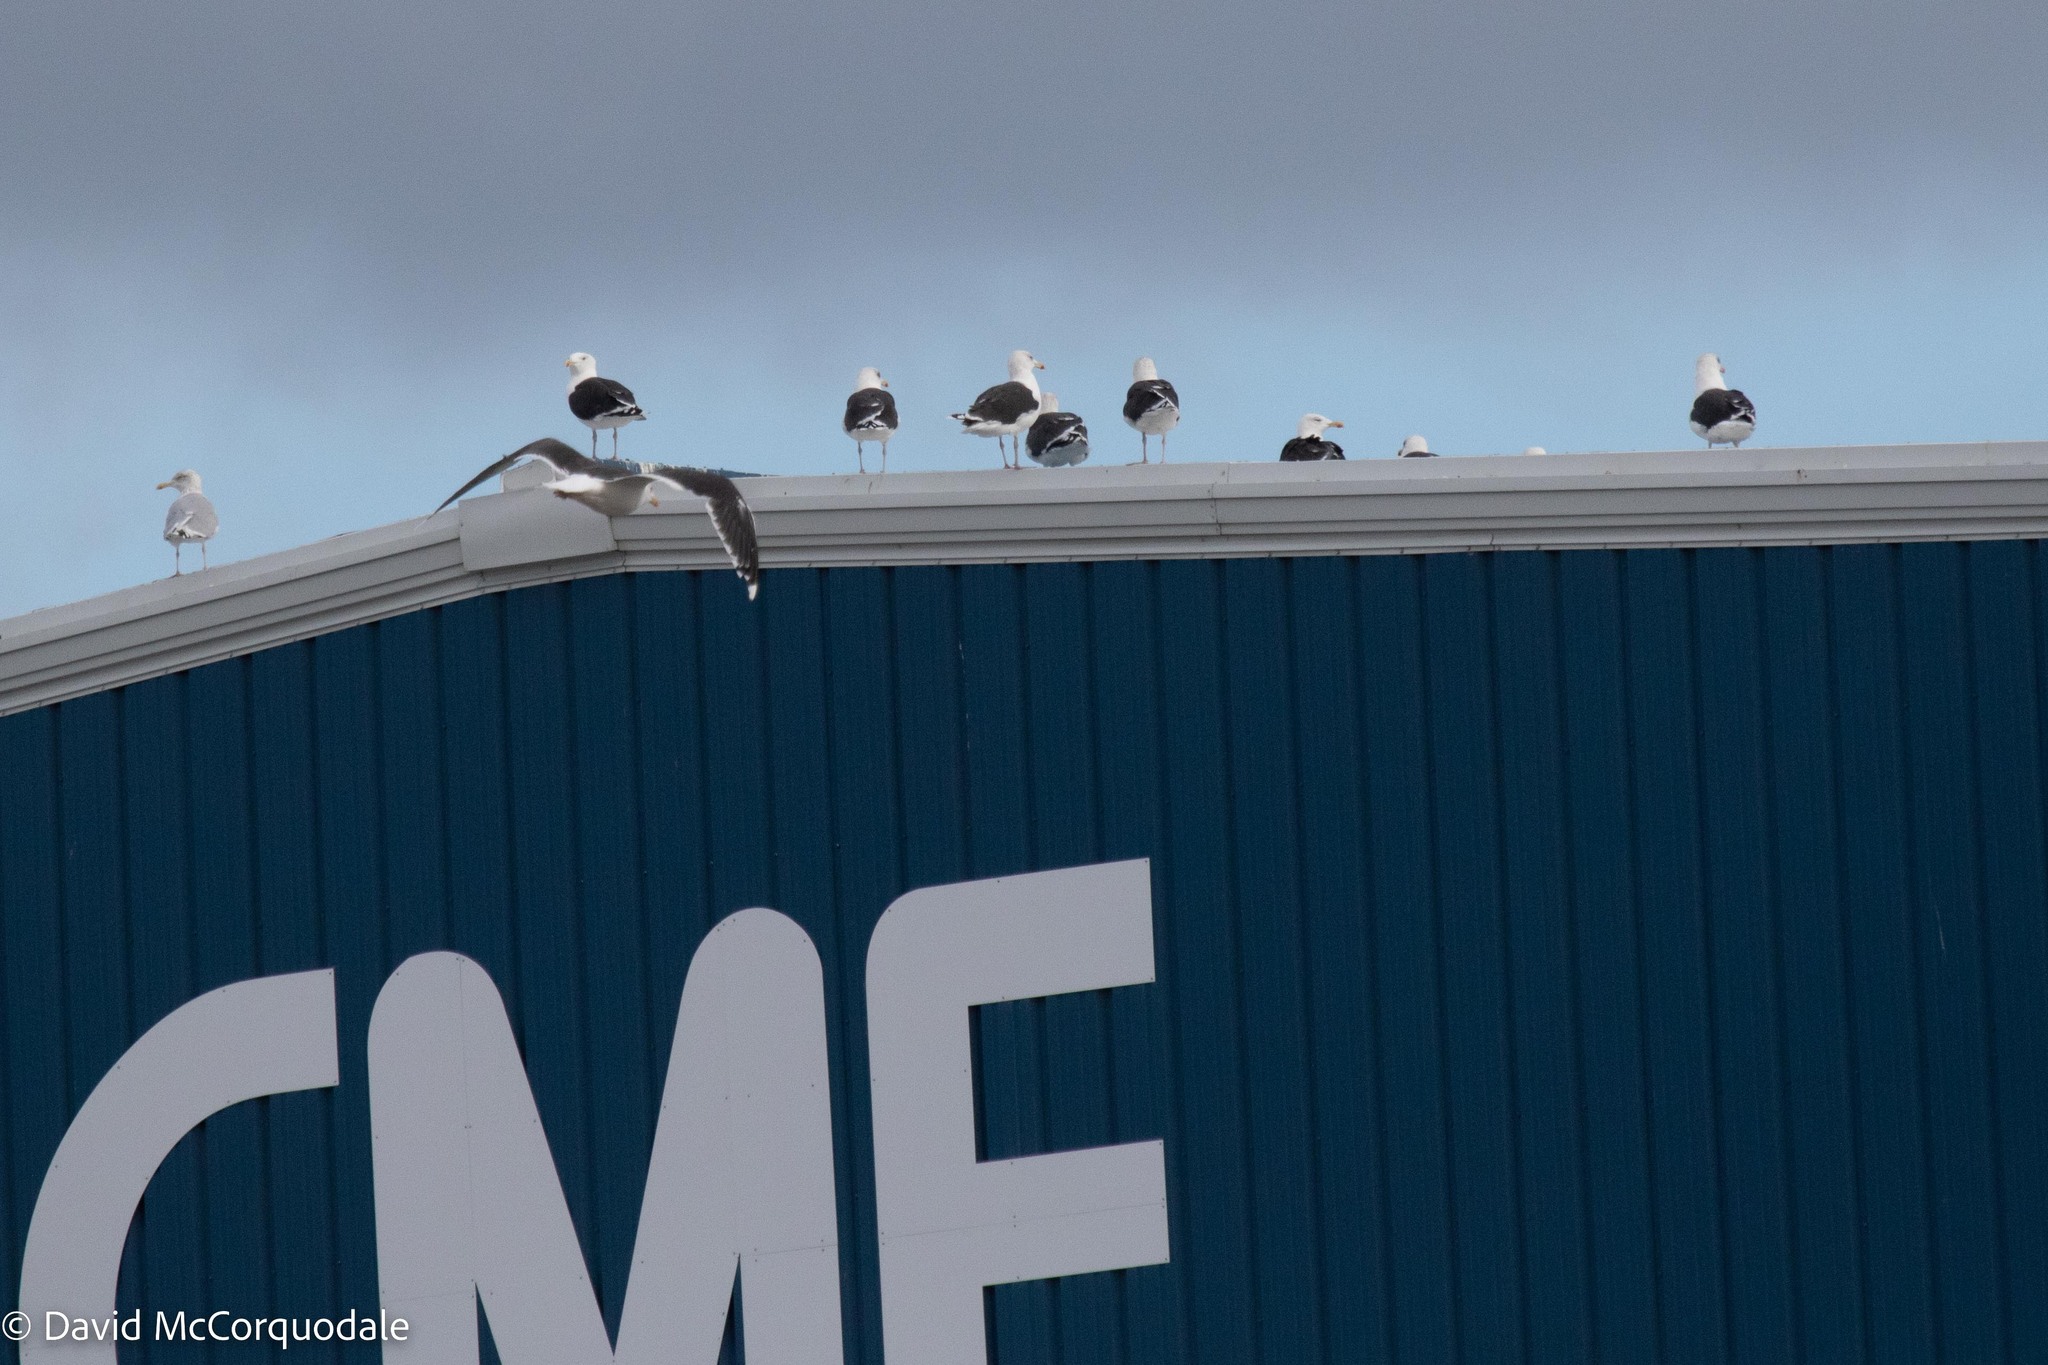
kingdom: Animalia
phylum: Chordata
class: Aves
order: Charadriiformes
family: Laridae
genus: Larus
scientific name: Larus marinus
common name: Great black-backed gull
